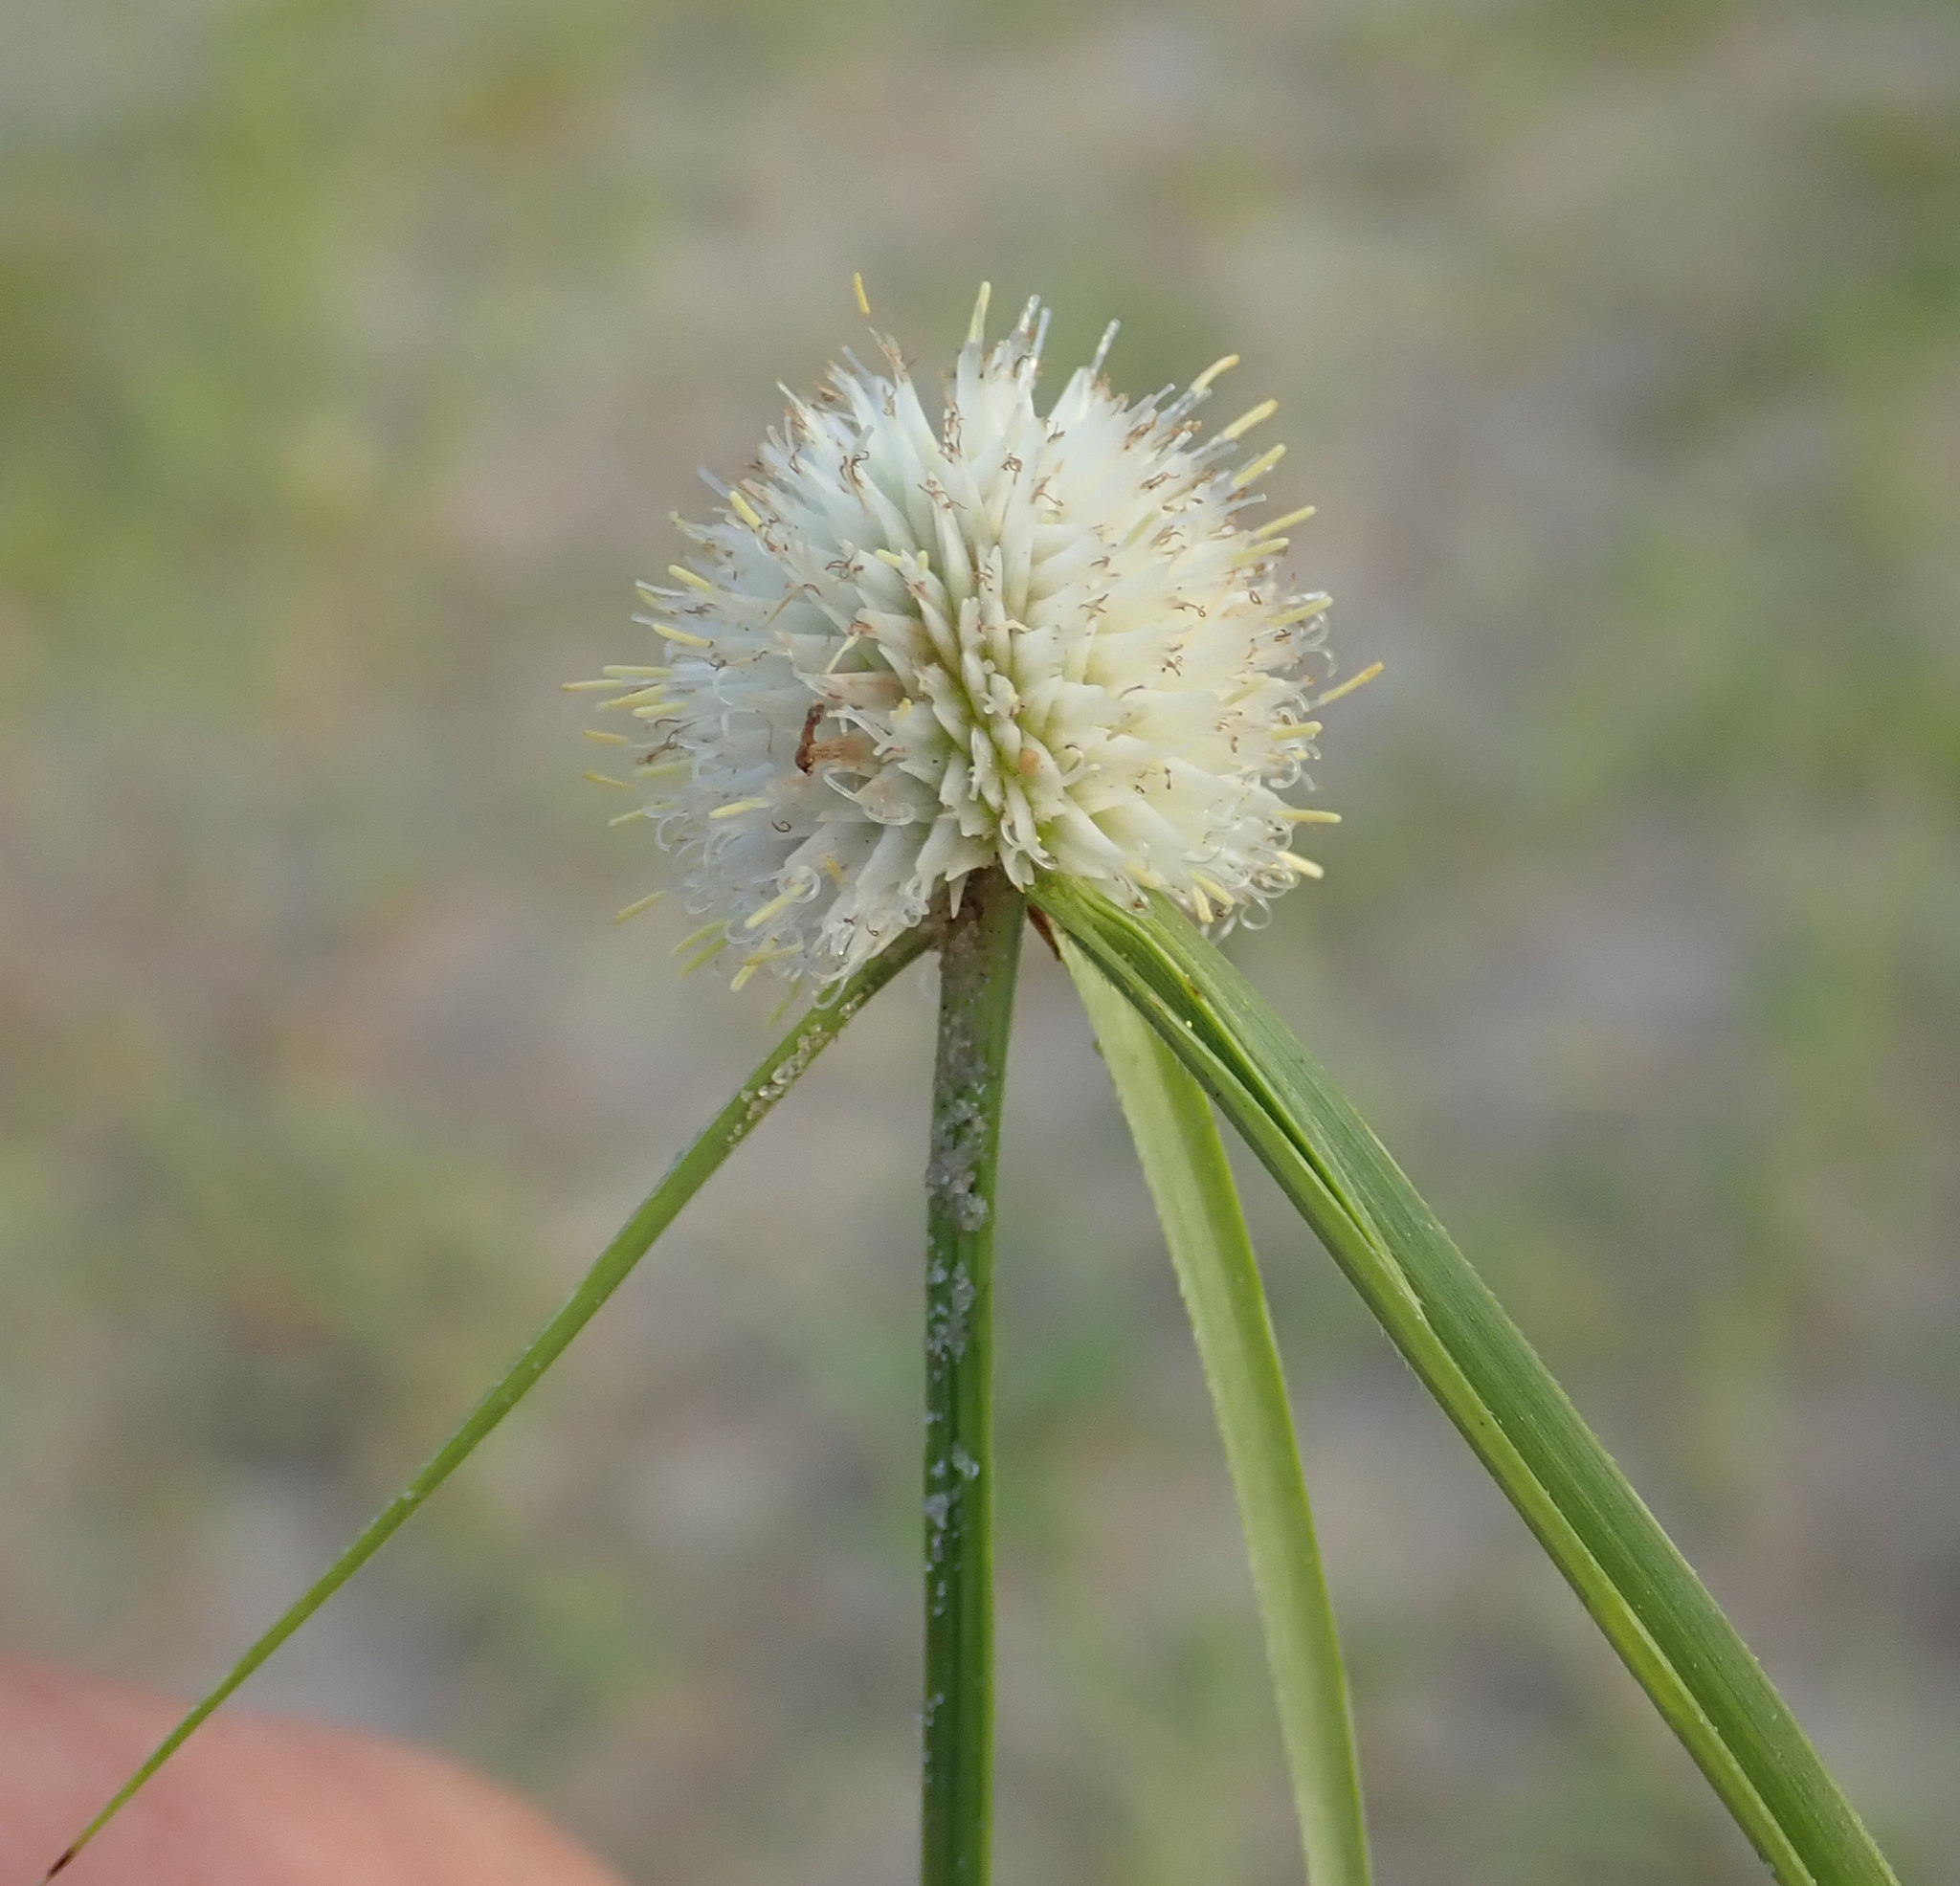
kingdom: Plantae
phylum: Tracheophyta
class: Liliopsida
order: Poales
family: Cyperaceae
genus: Cyperus
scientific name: Cyperus alatus
